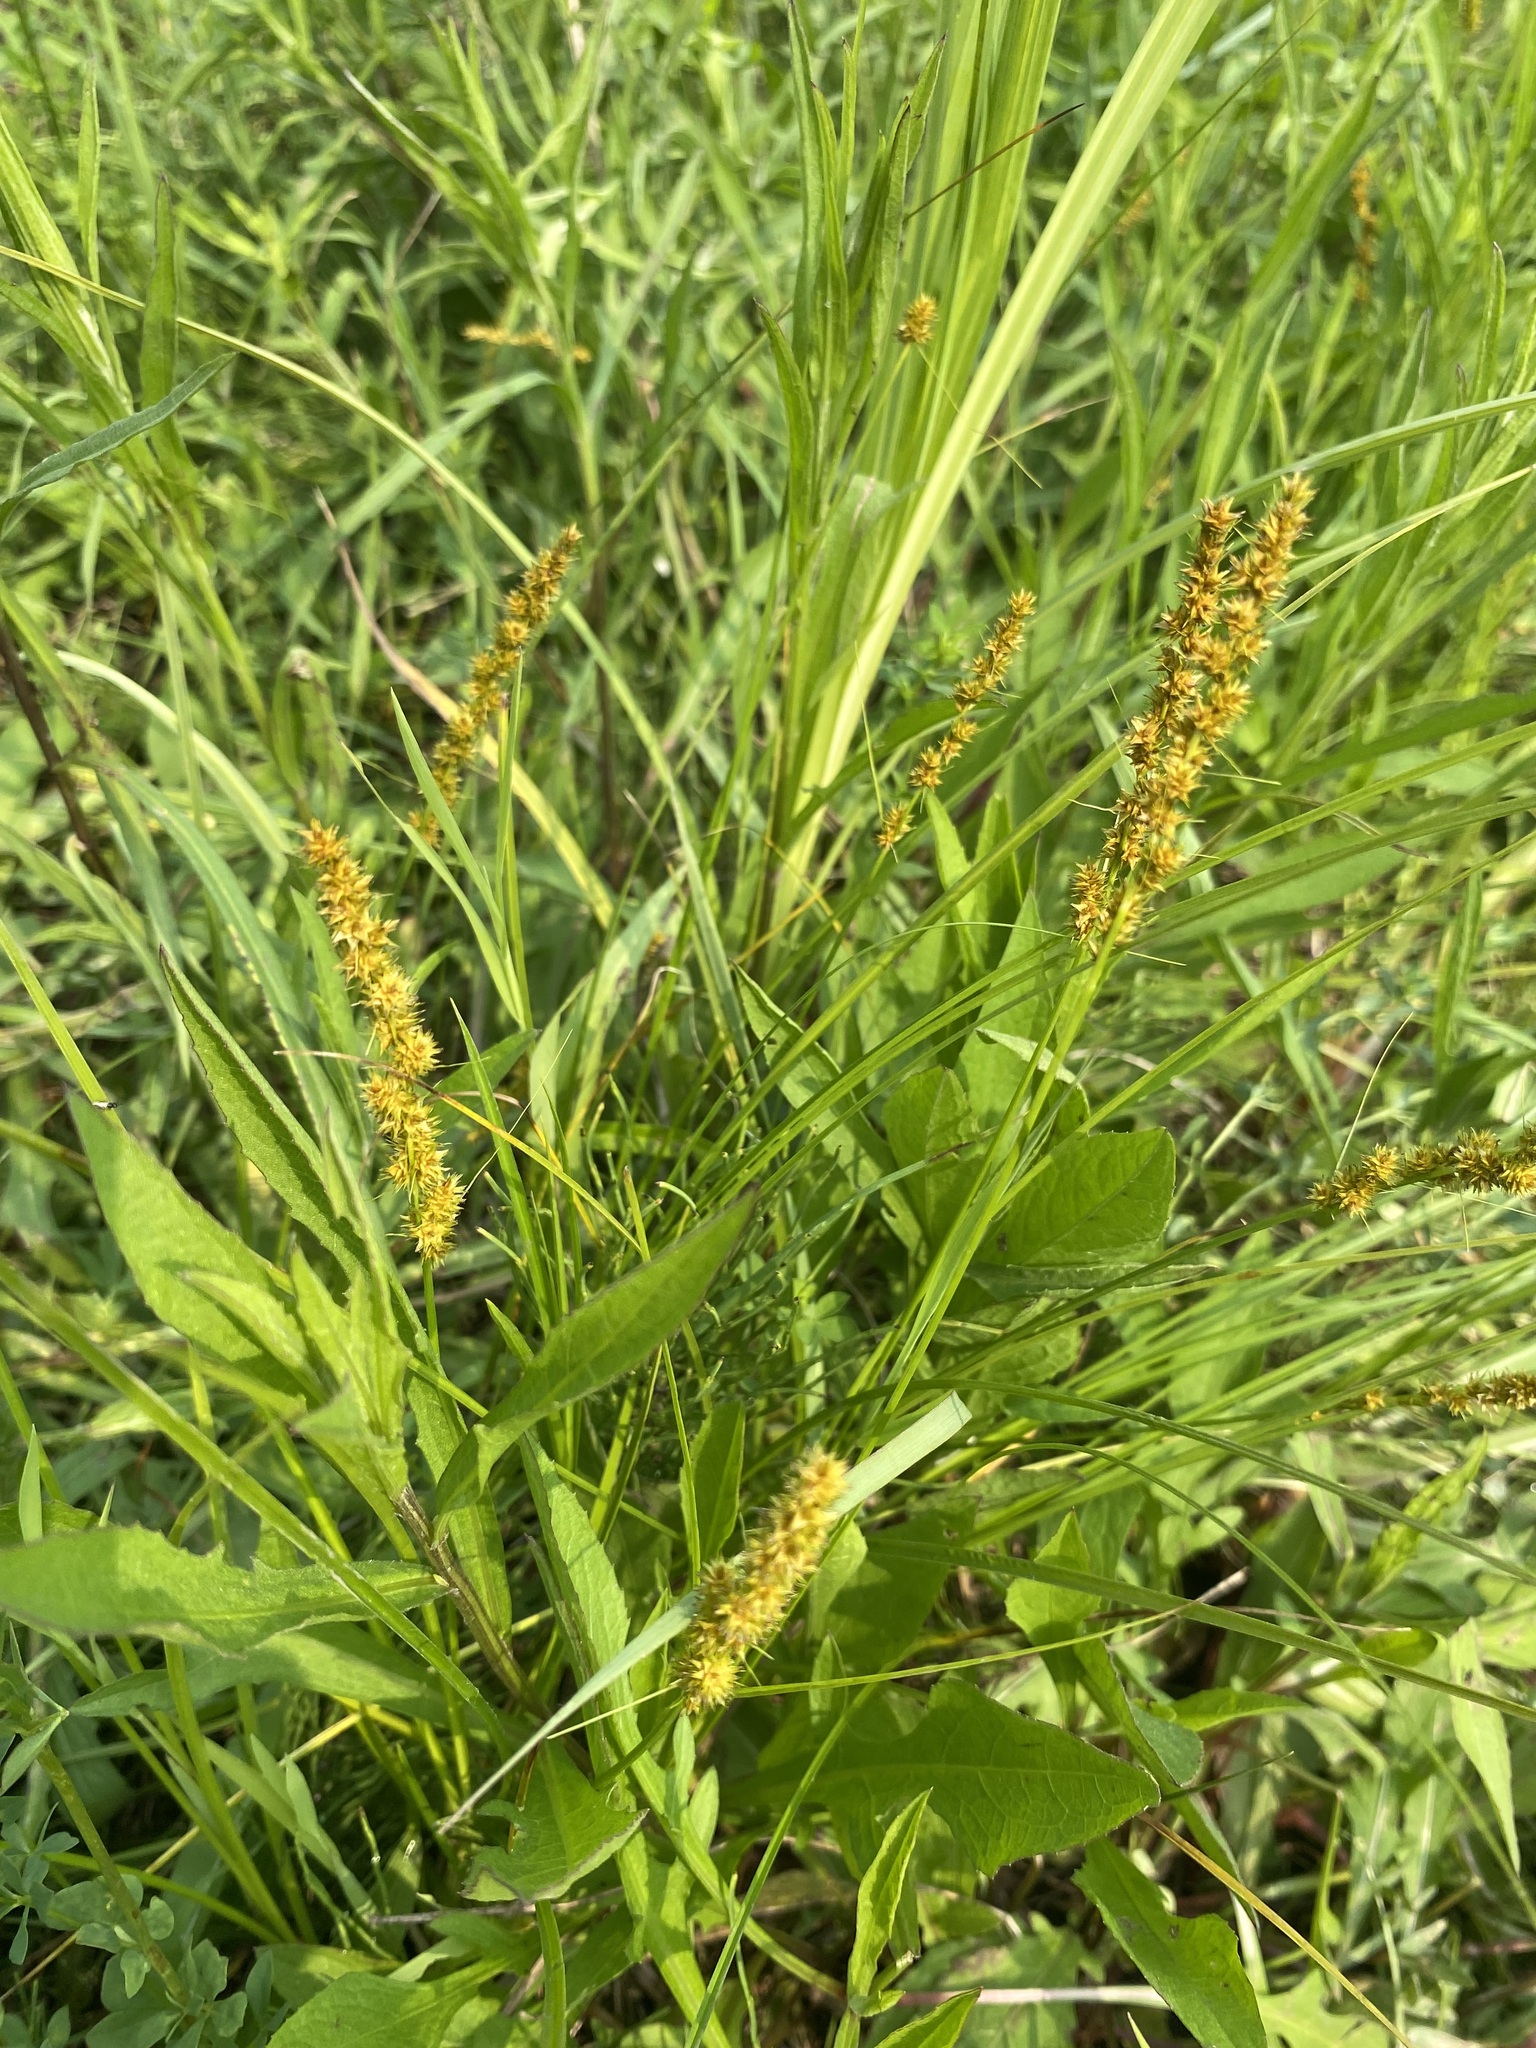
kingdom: Plantae
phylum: Tracheophyta
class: Liliopsida
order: Poales
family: Cyperaceae
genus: Carex
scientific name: Carex vulpinoidea
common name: American fox-sedge
